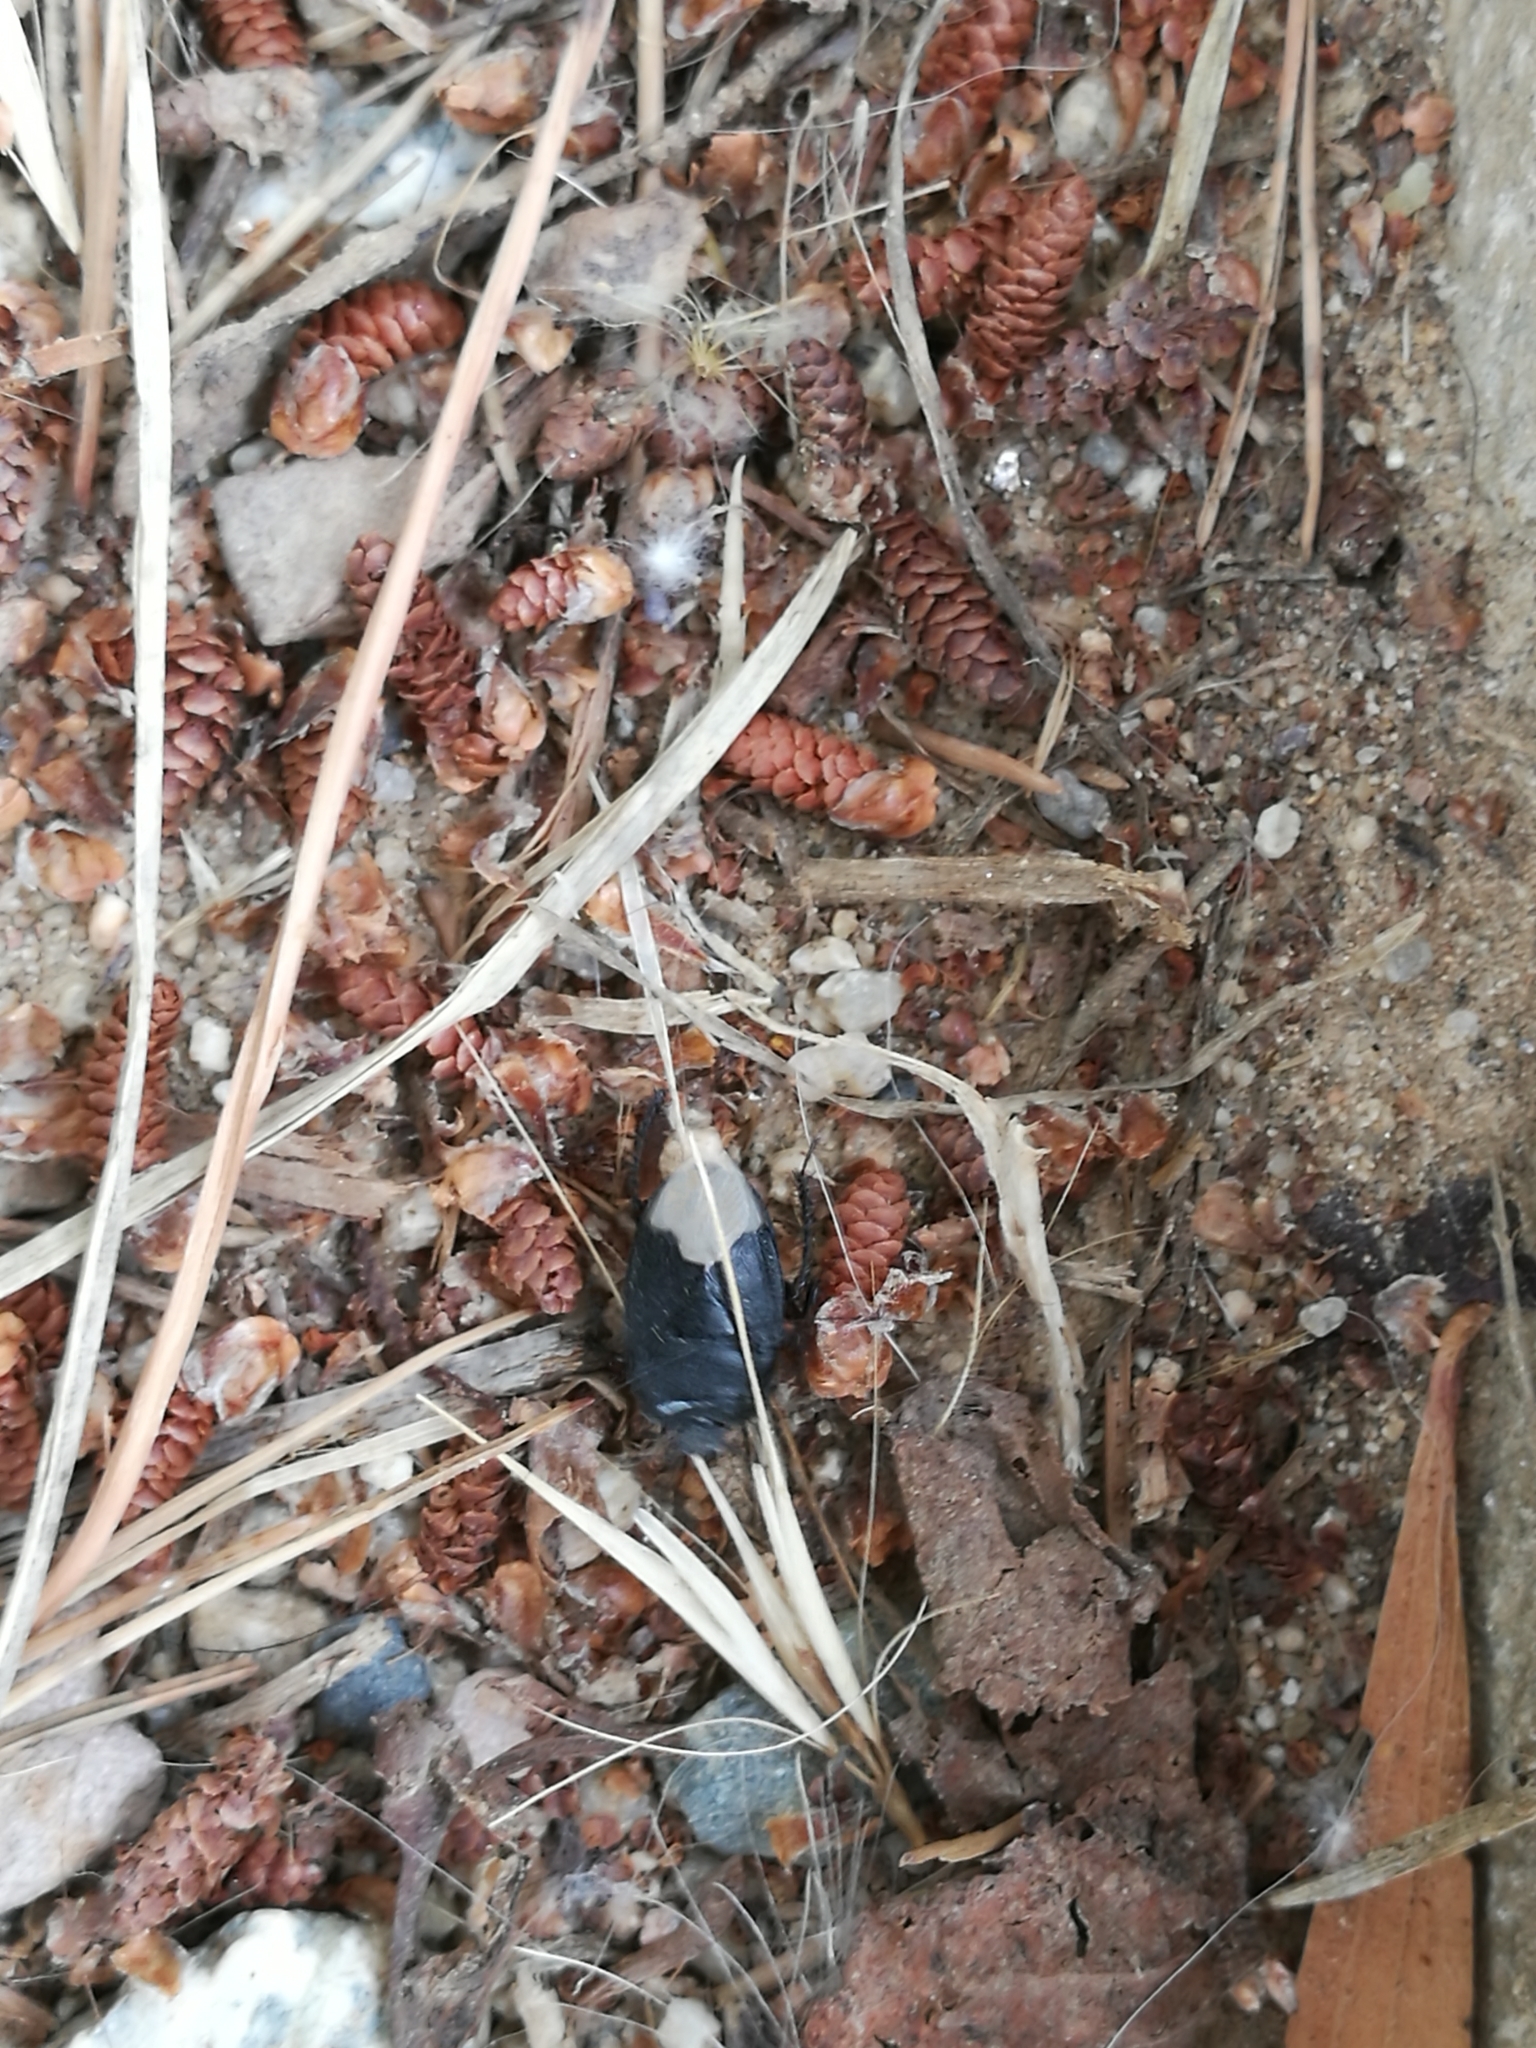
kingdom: Animalia
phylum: Arthropoda
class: Insecta
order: Hemiptera
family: Cydnidae
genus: Cydnus
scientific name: Cydnus aterrimus
